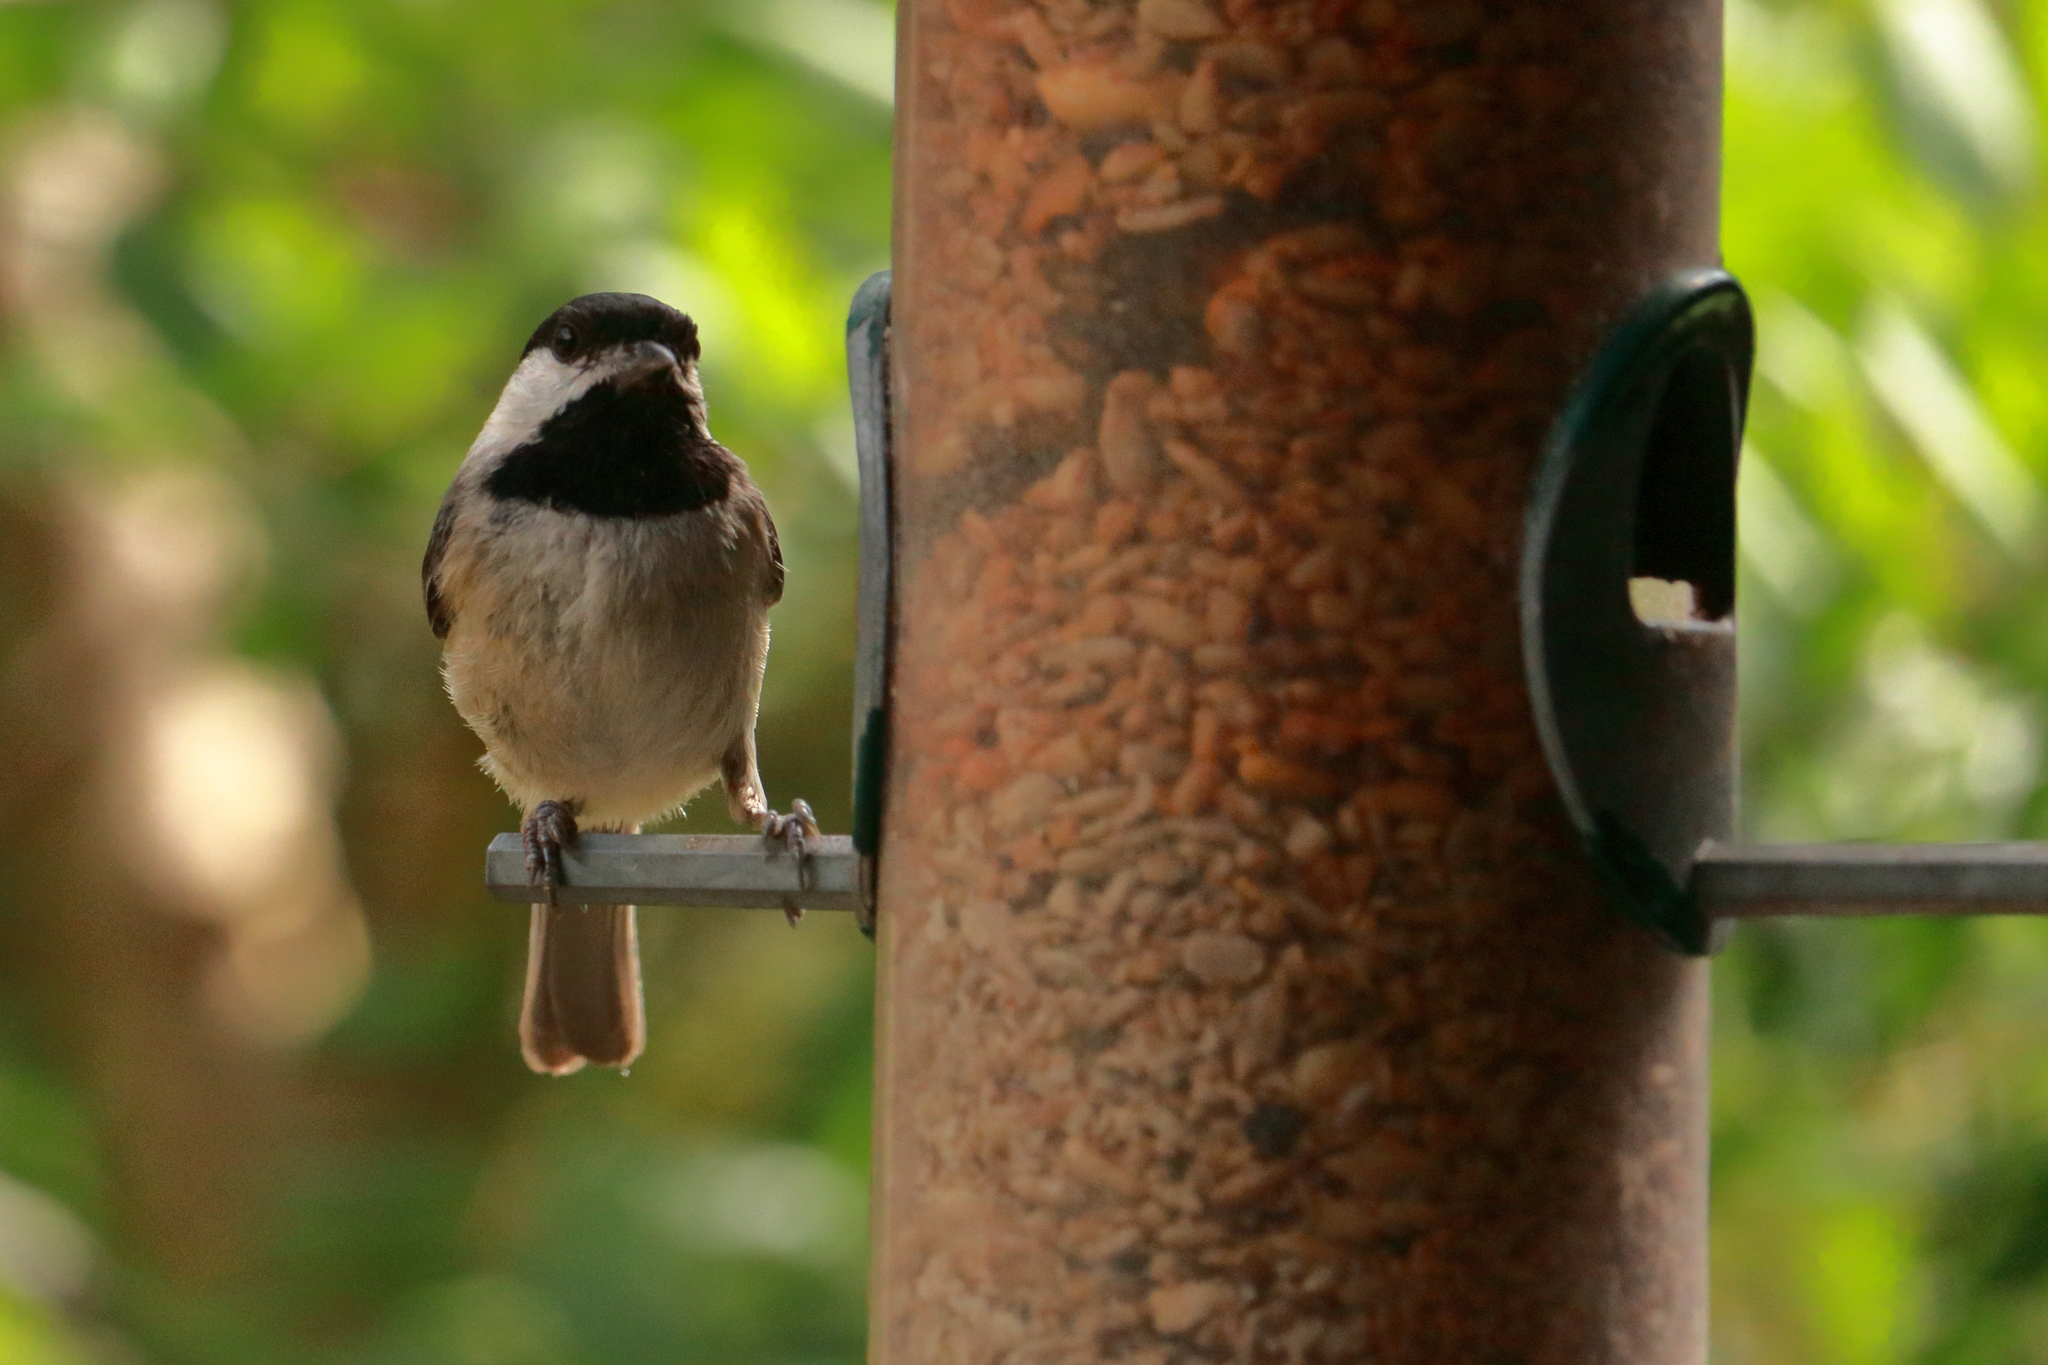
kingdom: Animalia
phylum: Chordata
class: Aves
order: Passeriformes
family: Paridae
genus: Poecile
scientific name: Poecile carolinensis
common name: Carolina chickadee
